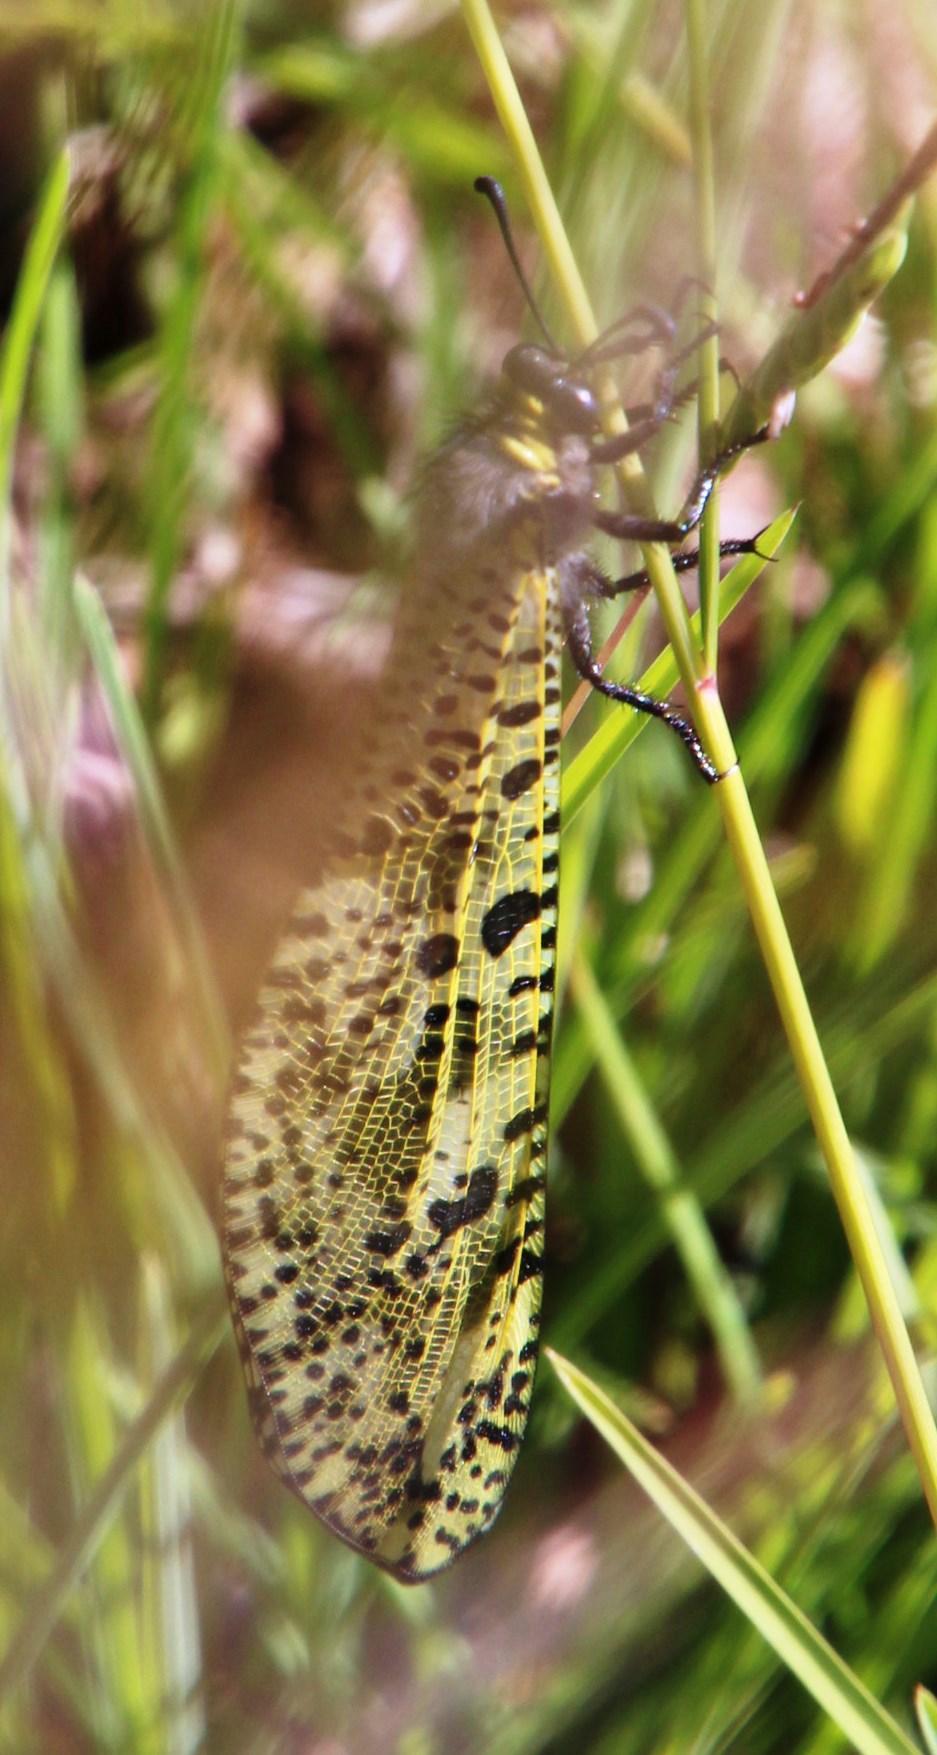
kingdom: Animalia
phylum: Arthropoda
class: Insecta
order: Neuroptera
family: Myrmeleontidae
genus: Palpares
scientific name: Palpares speciosus
